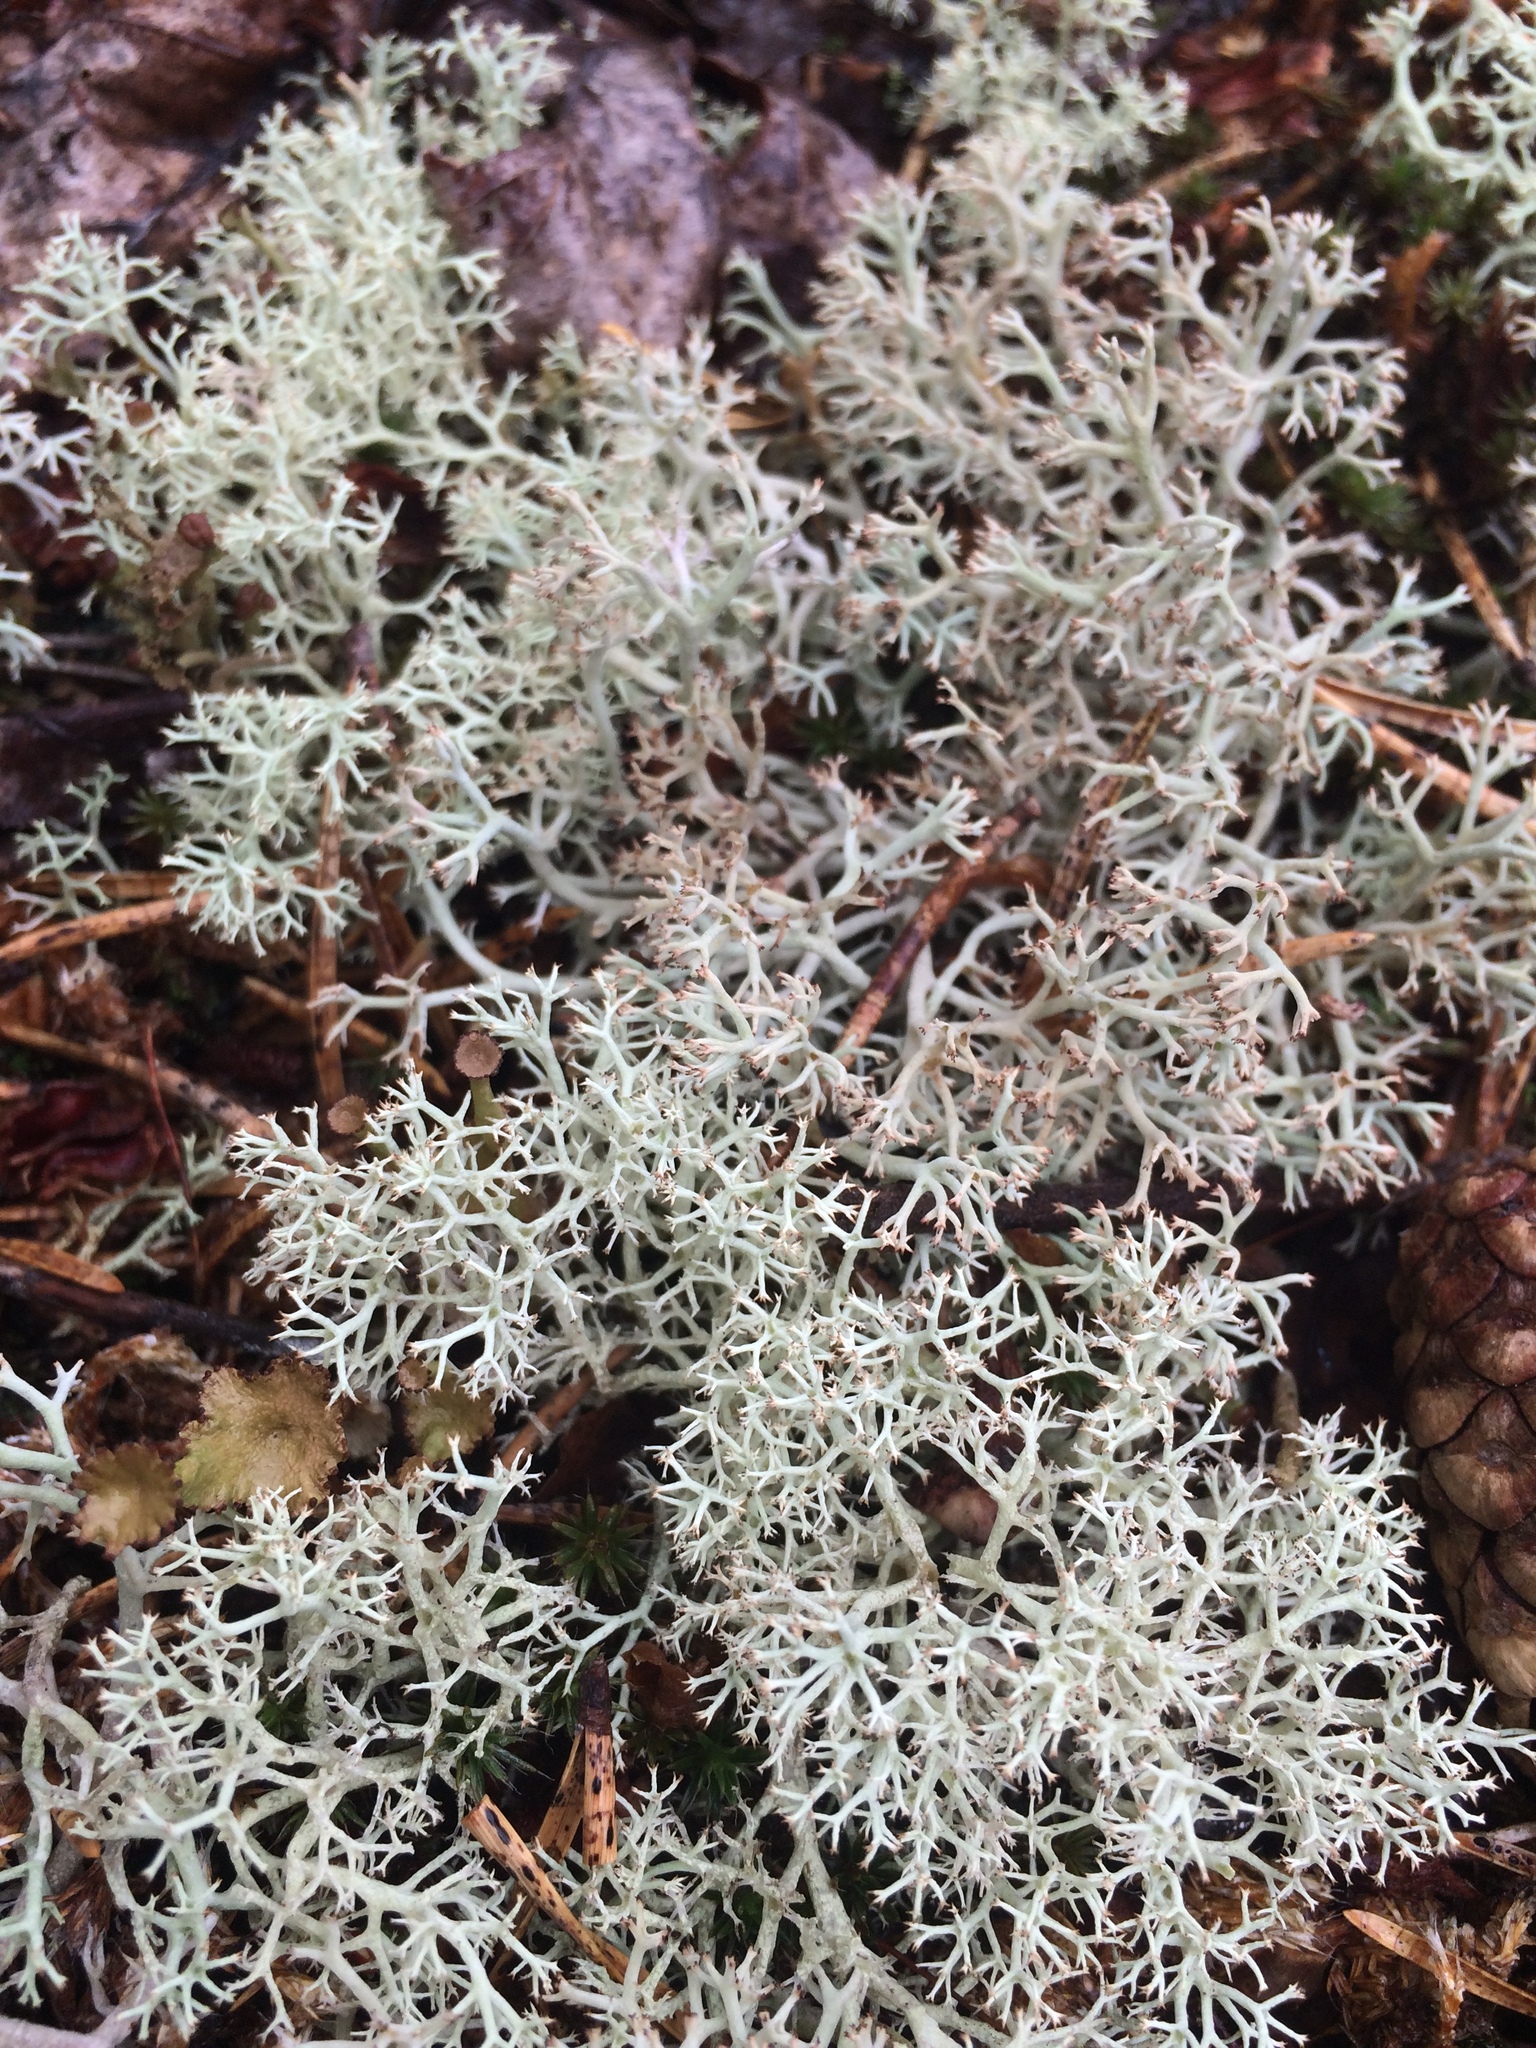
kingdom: Fungi
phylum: Ascomycota
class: Lecanoromycetes
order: Lecanorales
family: Cladoniaceae
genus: Cladonia
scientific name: Cladonia rangiferina
